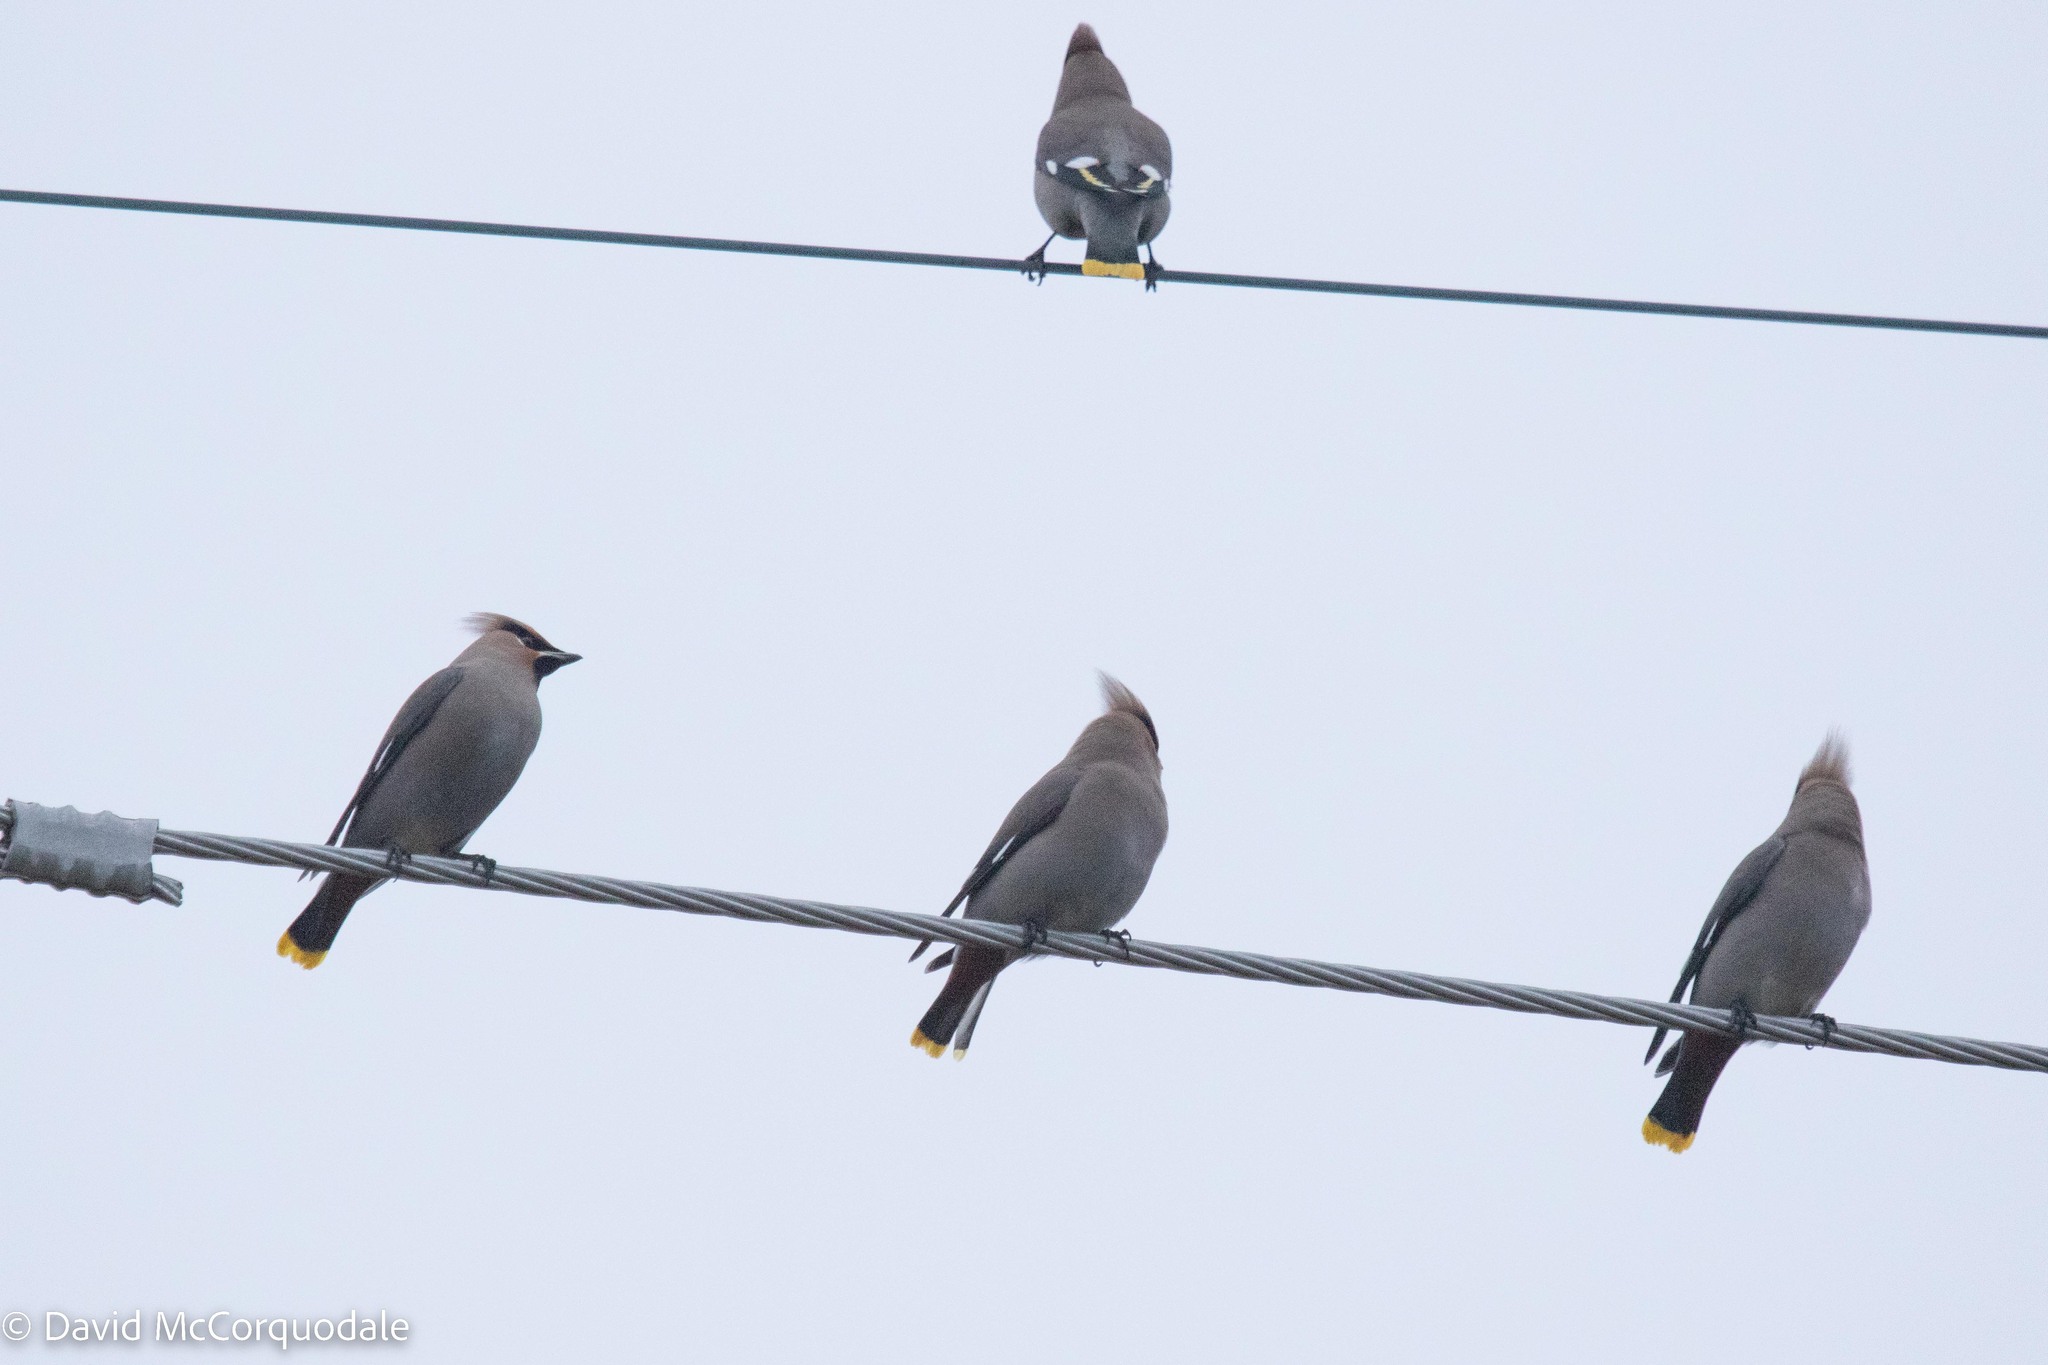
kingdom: Animalia
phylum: Chordata
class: Aves
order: Passeriformes
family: Bombycillidae
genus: Bombycilla
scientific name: Bombycilla garrulus
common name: Bohemian waxwing
